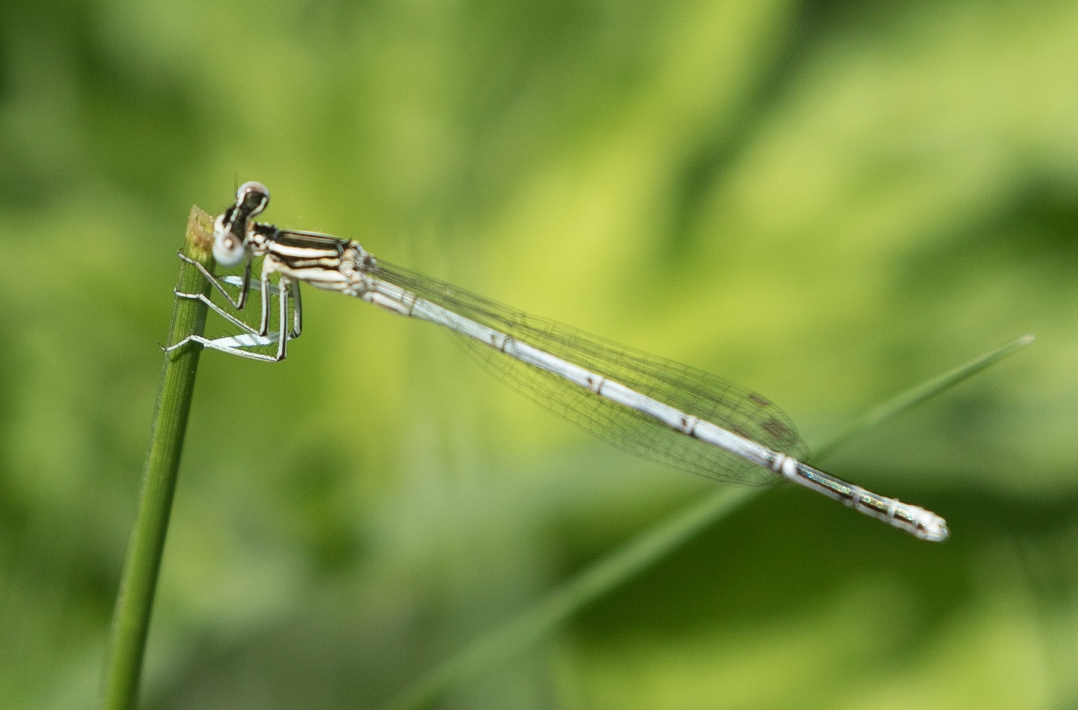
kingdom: Animalia
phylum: Arthropoda
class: Insecta
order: Odonata
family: Platycnemididae
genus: Platycnemis
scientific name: Platycnemis pennipes
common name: White-legged damselfly
